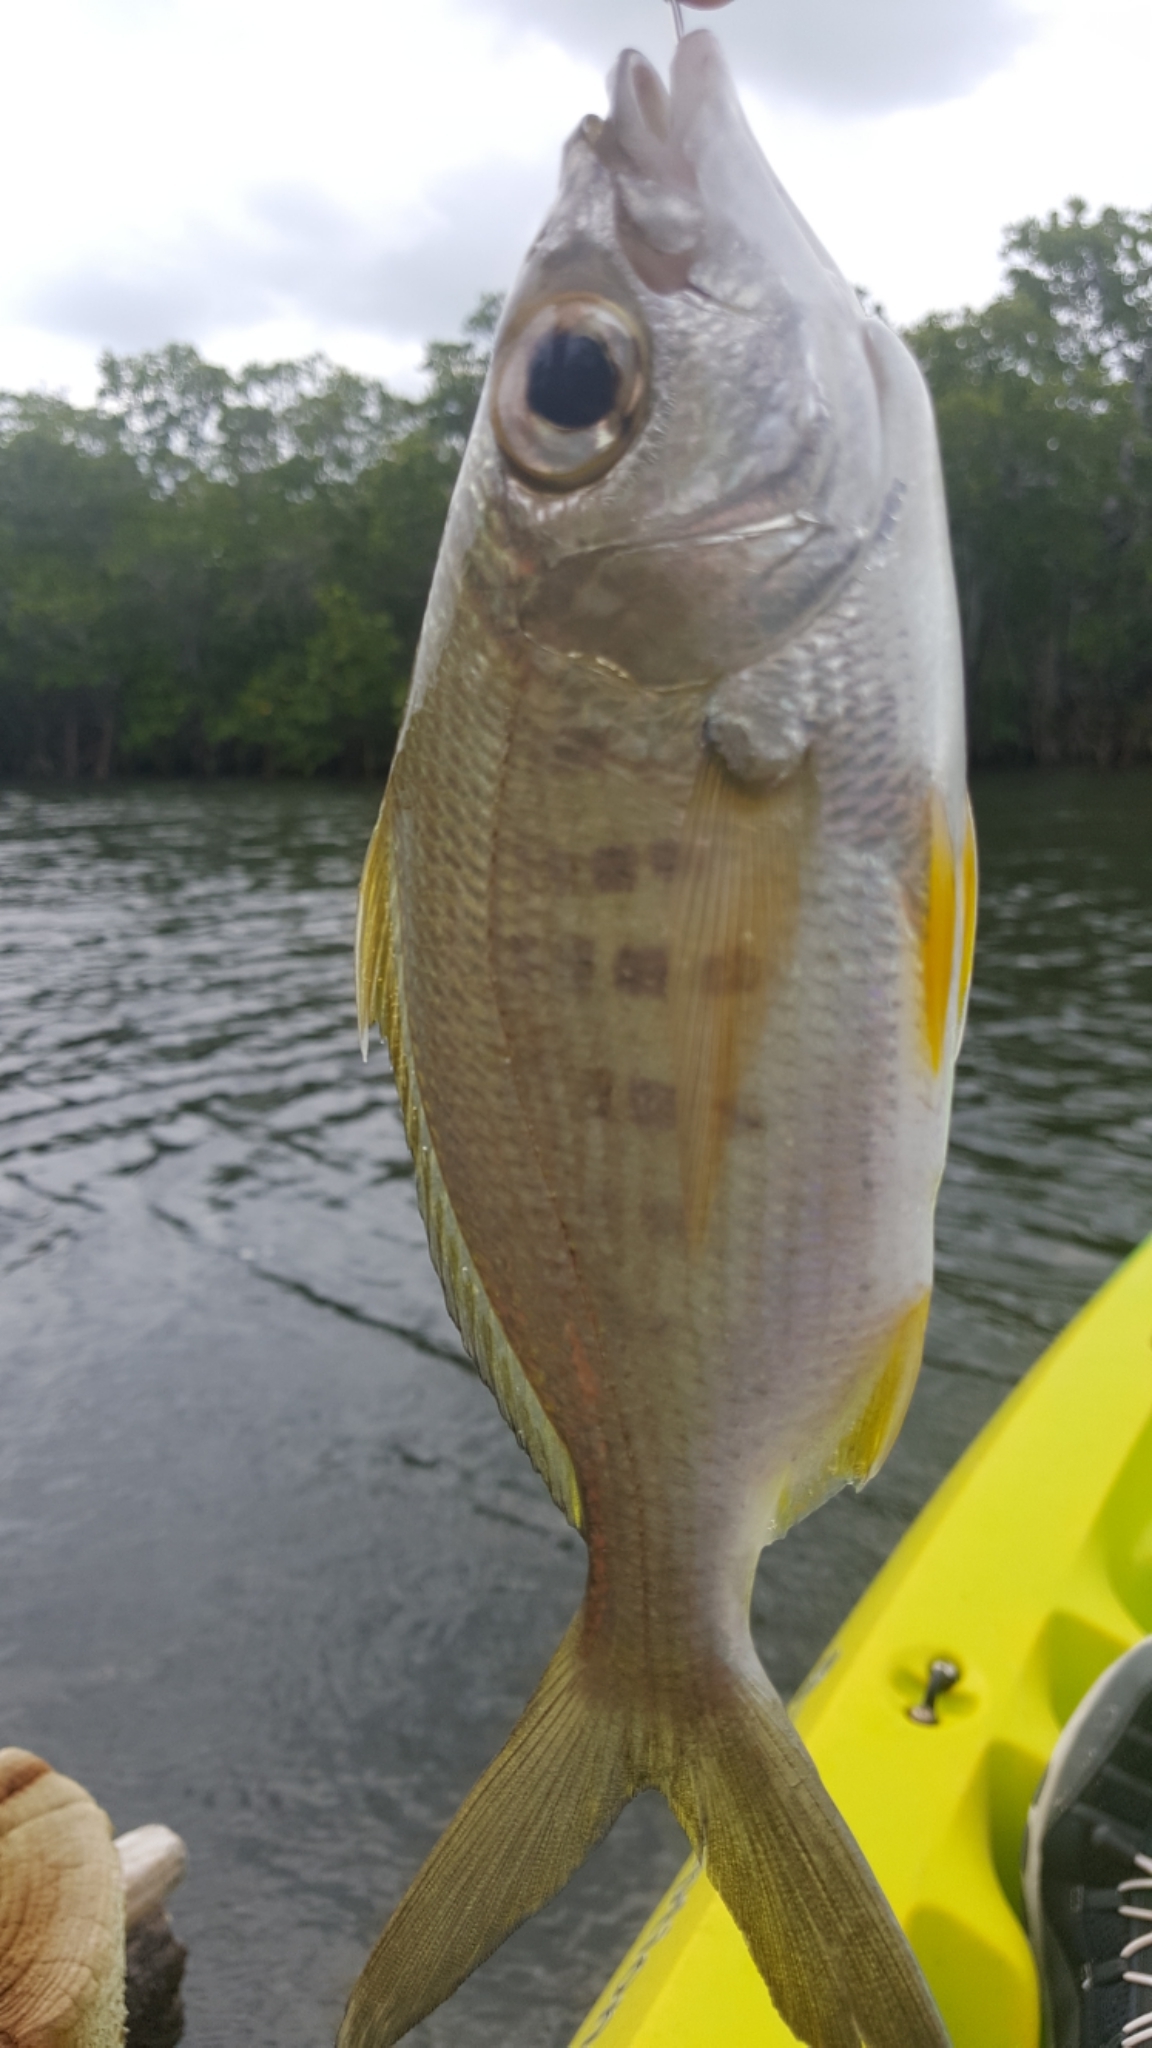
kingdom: Animalia
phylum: Chordata
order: Perciformes
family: Gerreidae
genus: Gerres
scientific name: Gerres cinereus
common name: Hedow
